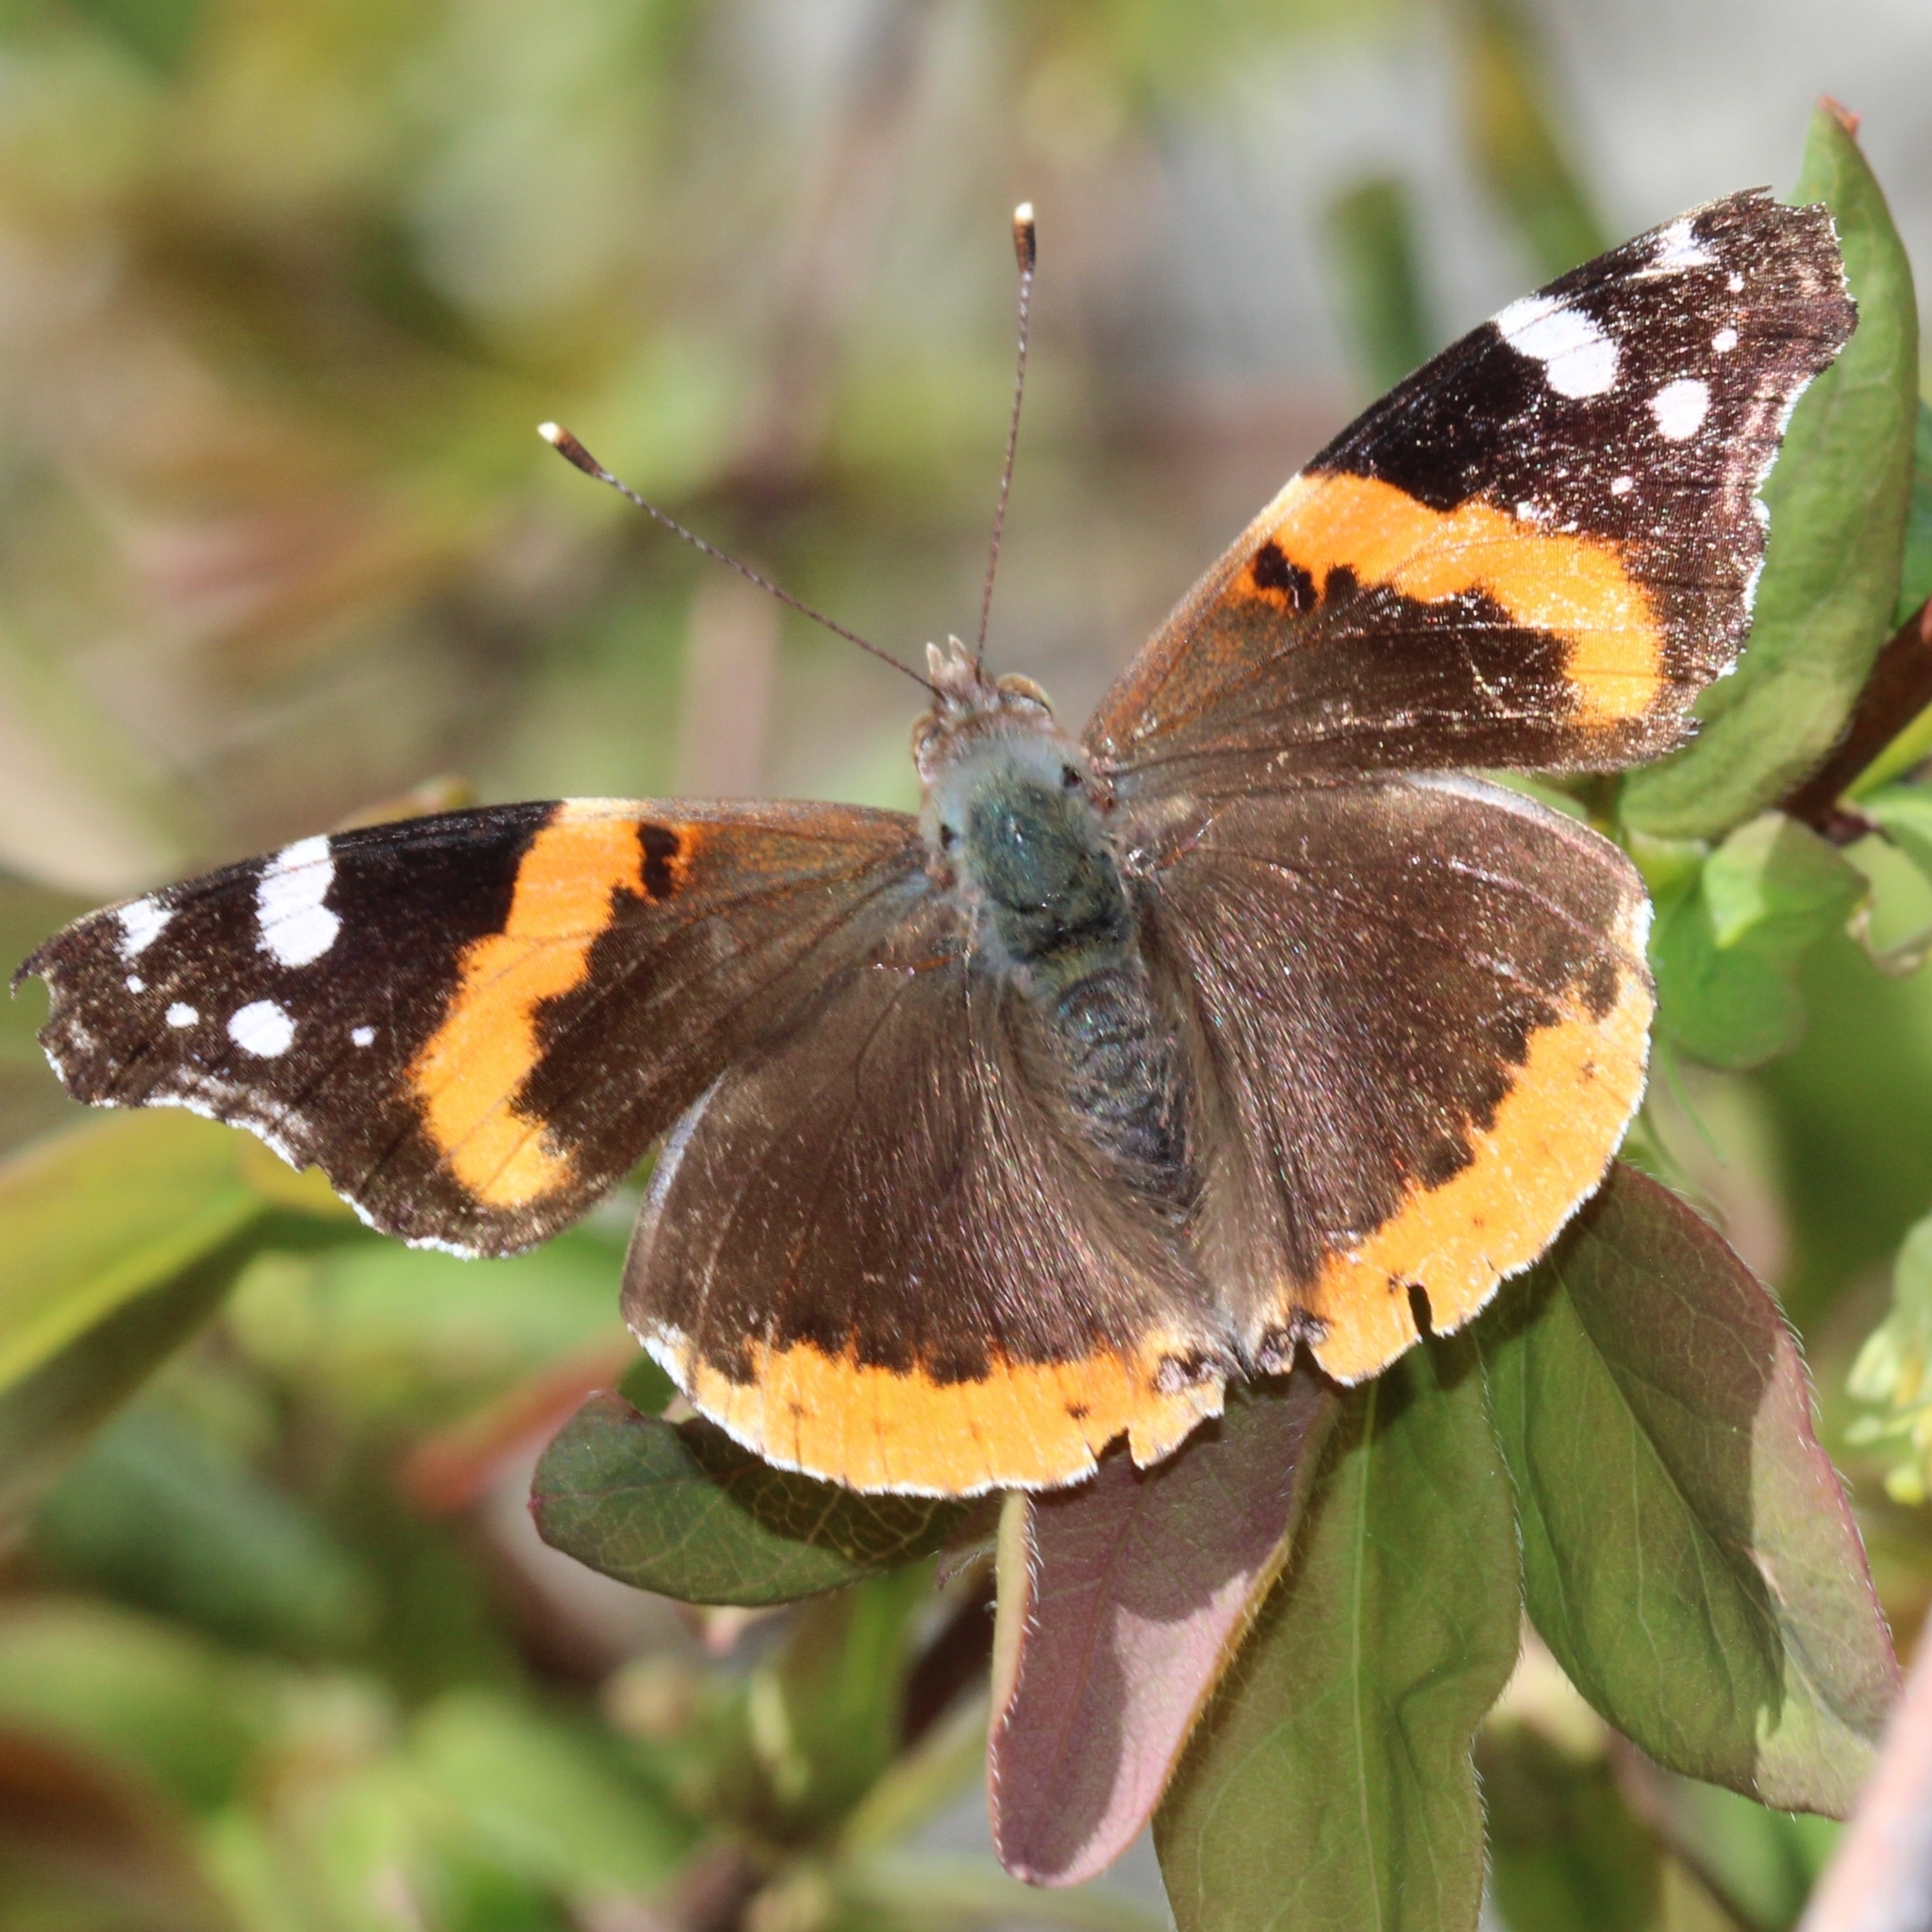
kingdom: Animalia
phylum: Arthropoda
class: Insecta
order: Lepidoptera
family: Nymphalidae
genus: Vanessa
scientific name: Vanessa atalanta
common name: Red admiral
